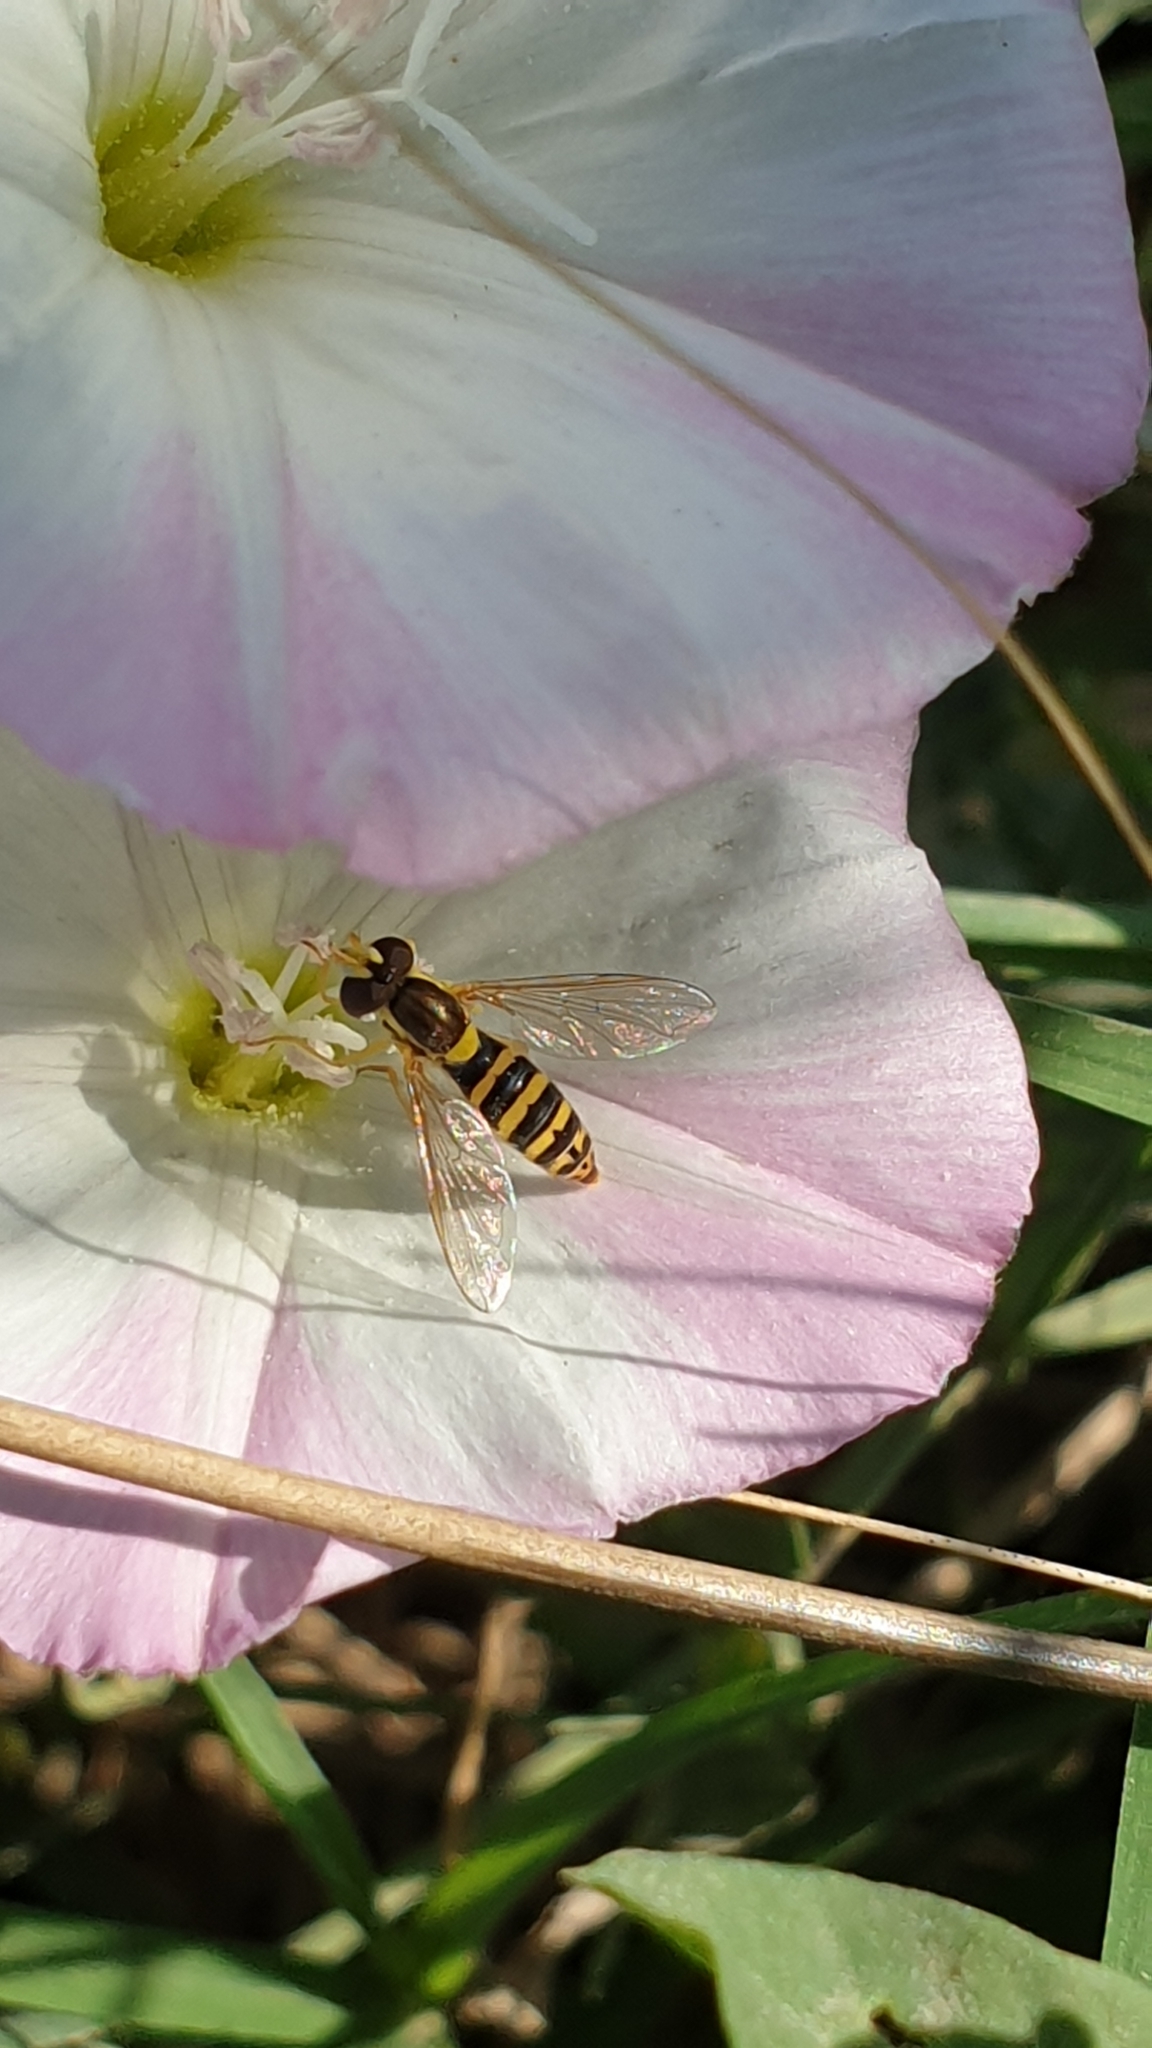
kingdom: Animalia
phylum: Arthropoda
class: Insecta
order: Diptera
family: Syrphidae
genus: Sphaerophoria
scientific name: Sphaerophoria
